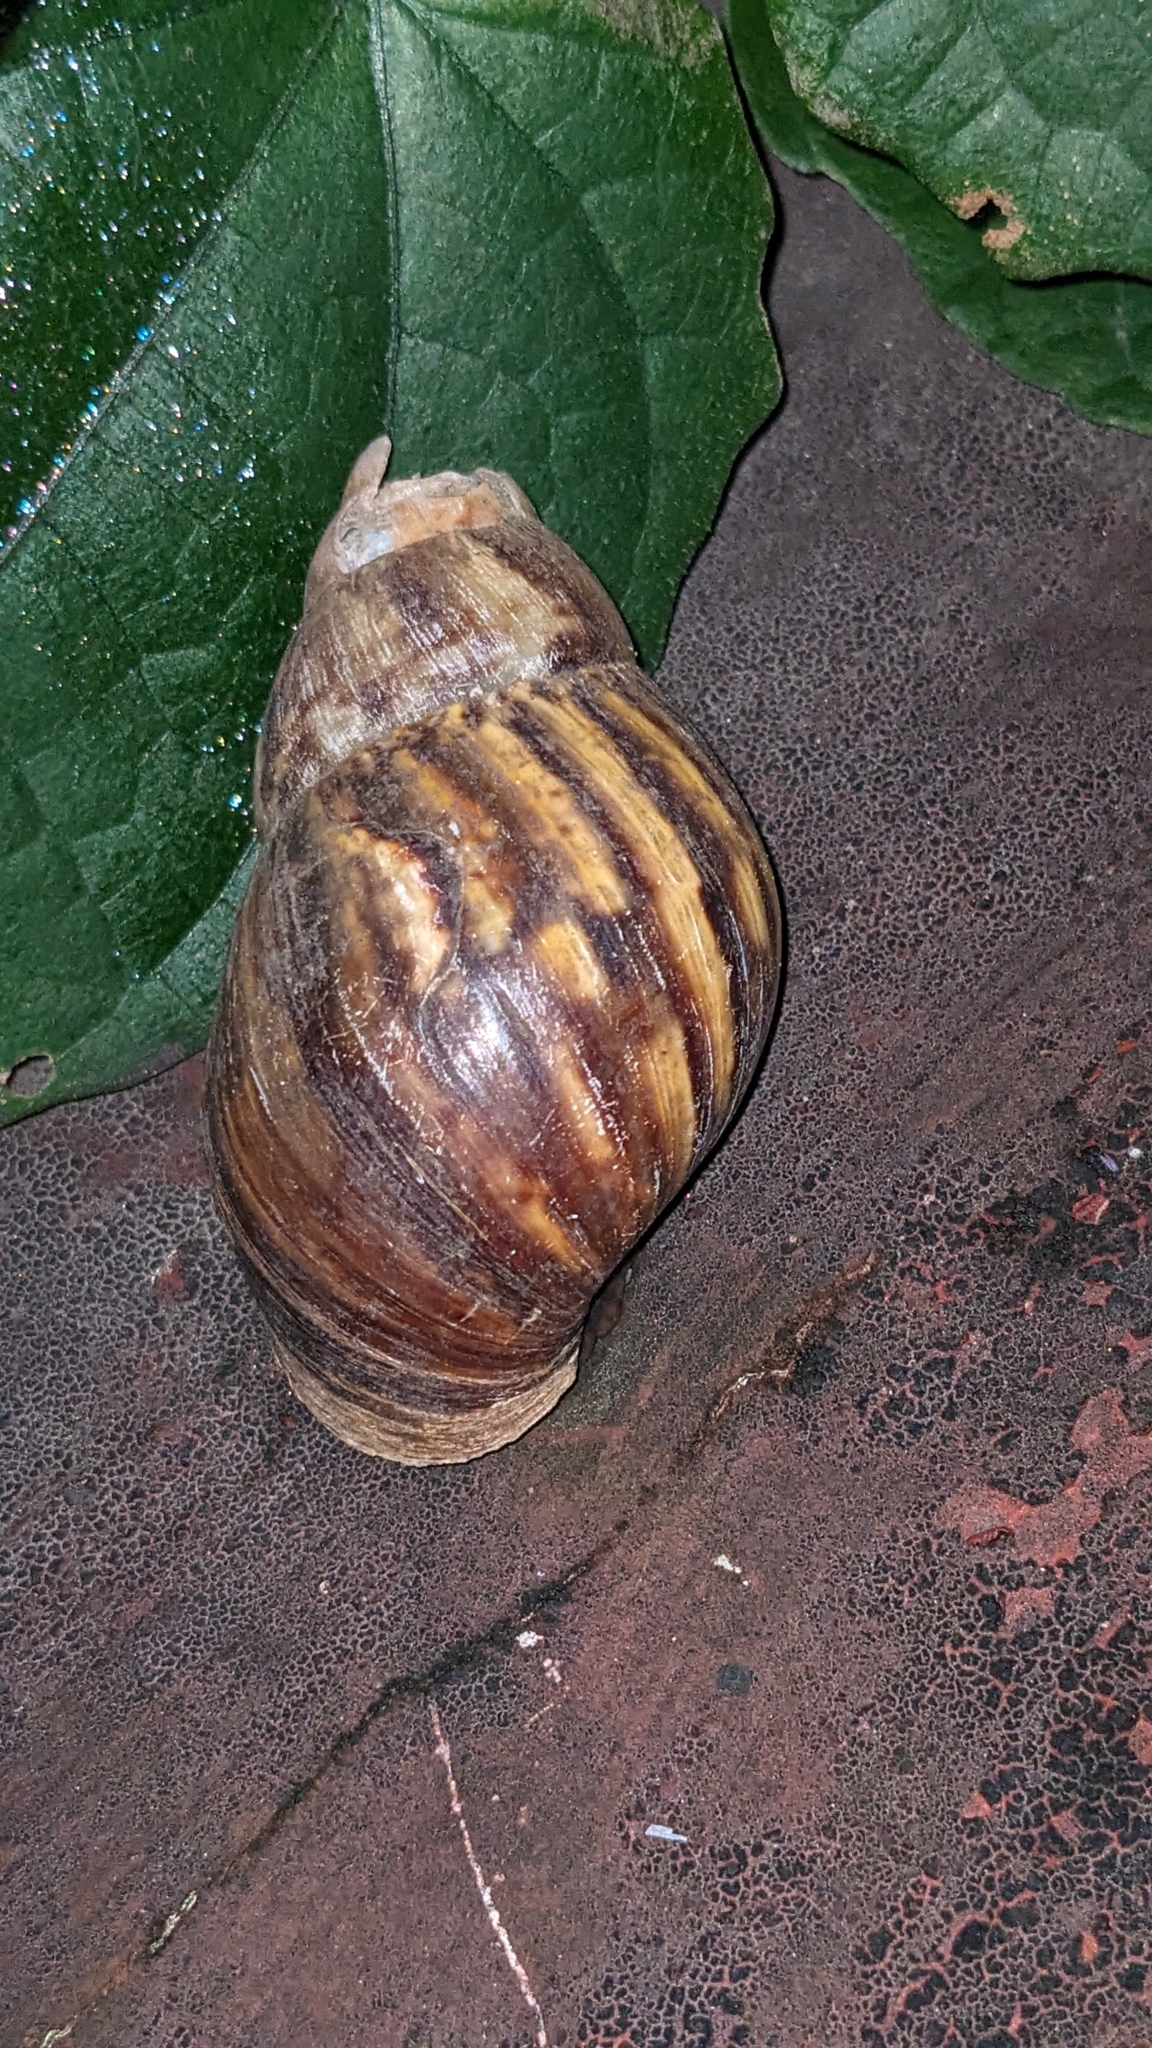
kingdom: Animalia
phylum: Mollusca
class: Gastropoda
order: Stylommatophora
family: Achatinidae
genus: Lissachatina
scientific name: Lissachatina fulica
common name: Giant african snail
